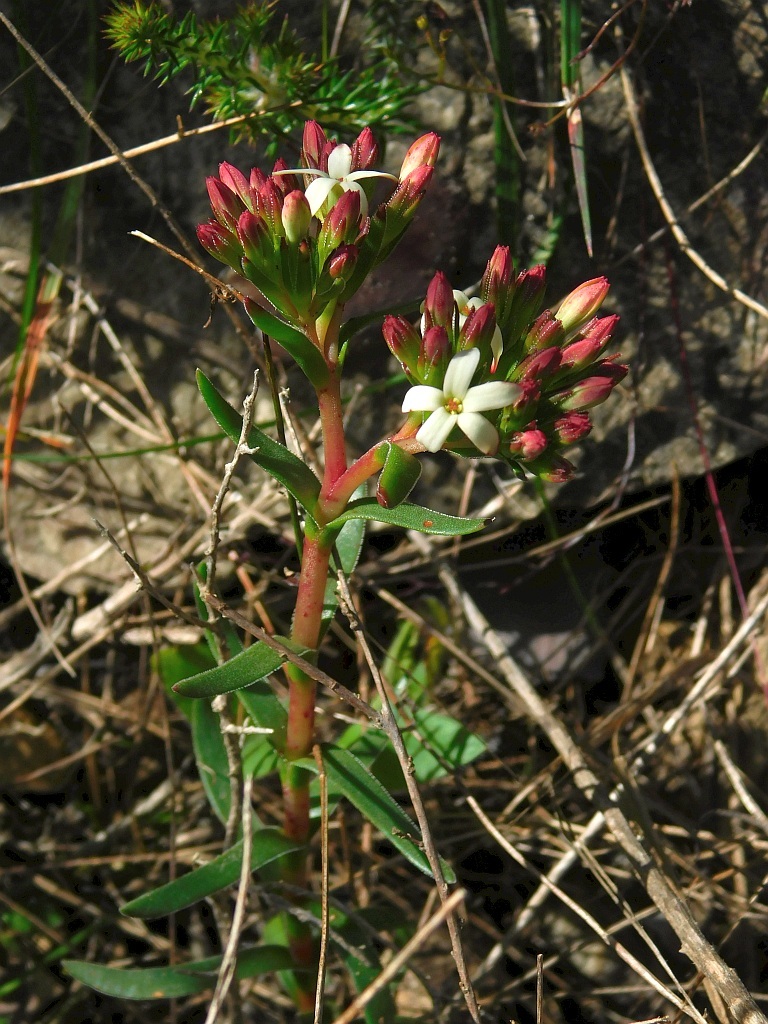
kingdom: Plantae
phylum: Tracheophyta
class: Magnoliopsida
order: Saxifragales
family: Crassulaceae
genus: Crassula
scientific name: Crassula fascicularis
